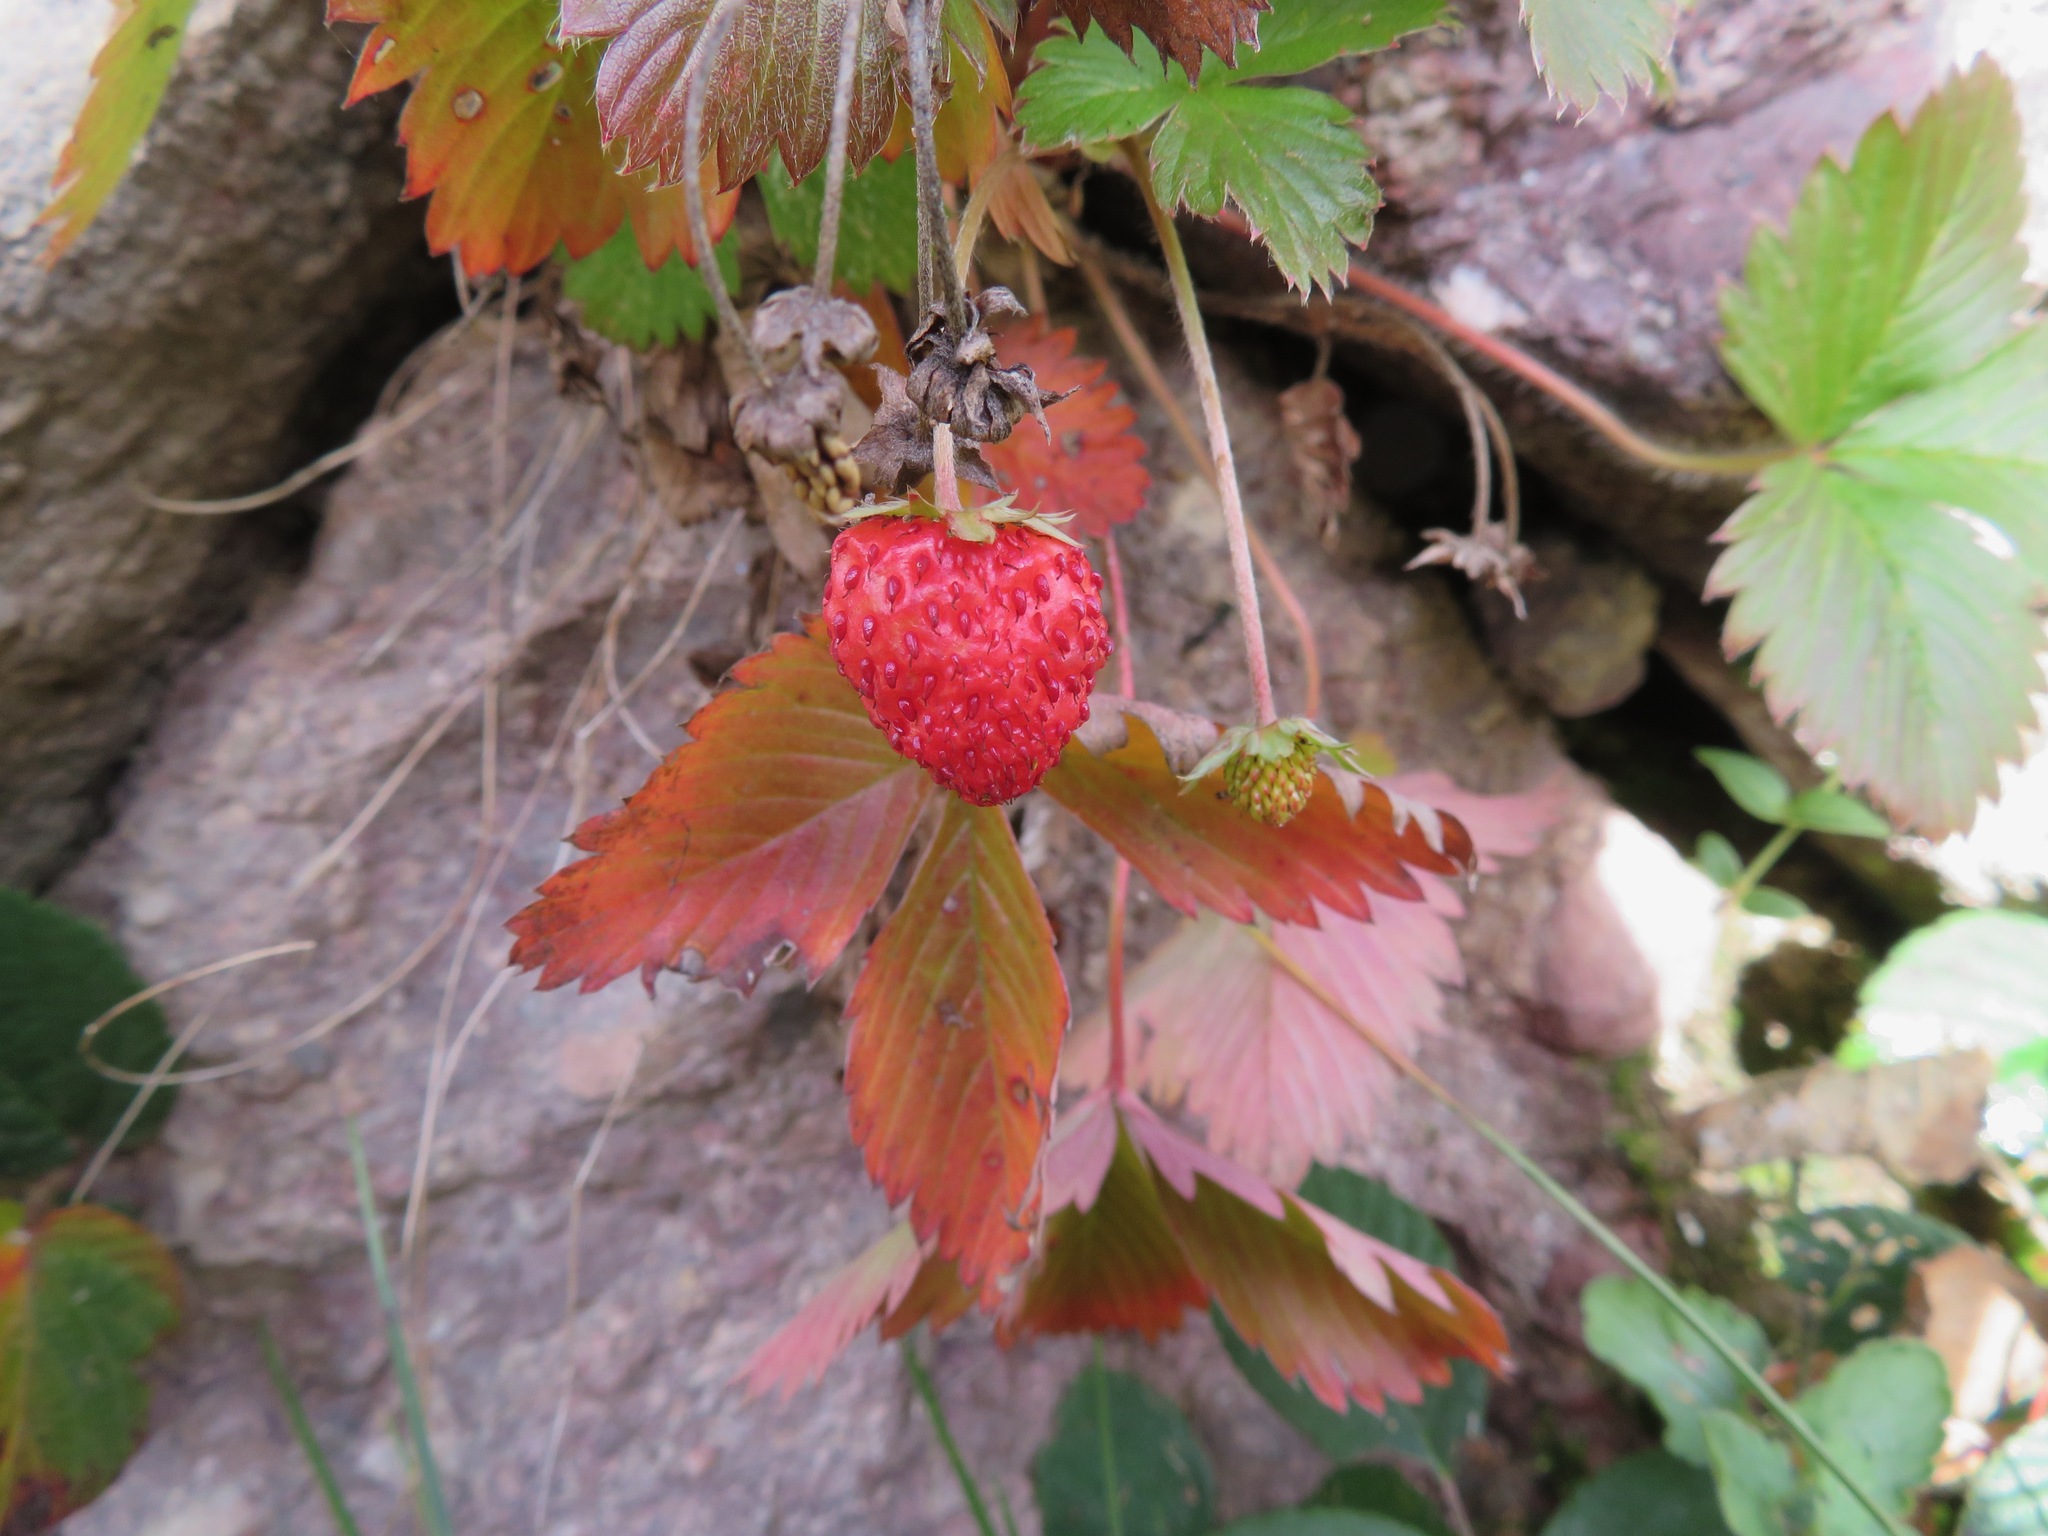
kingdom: Plantae
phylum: Tracheophyta
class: Magnoliopsida
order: Rosales
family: Rosaceae
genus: Fragaria
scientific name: Fragaria vesca
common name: Wild strawberry
